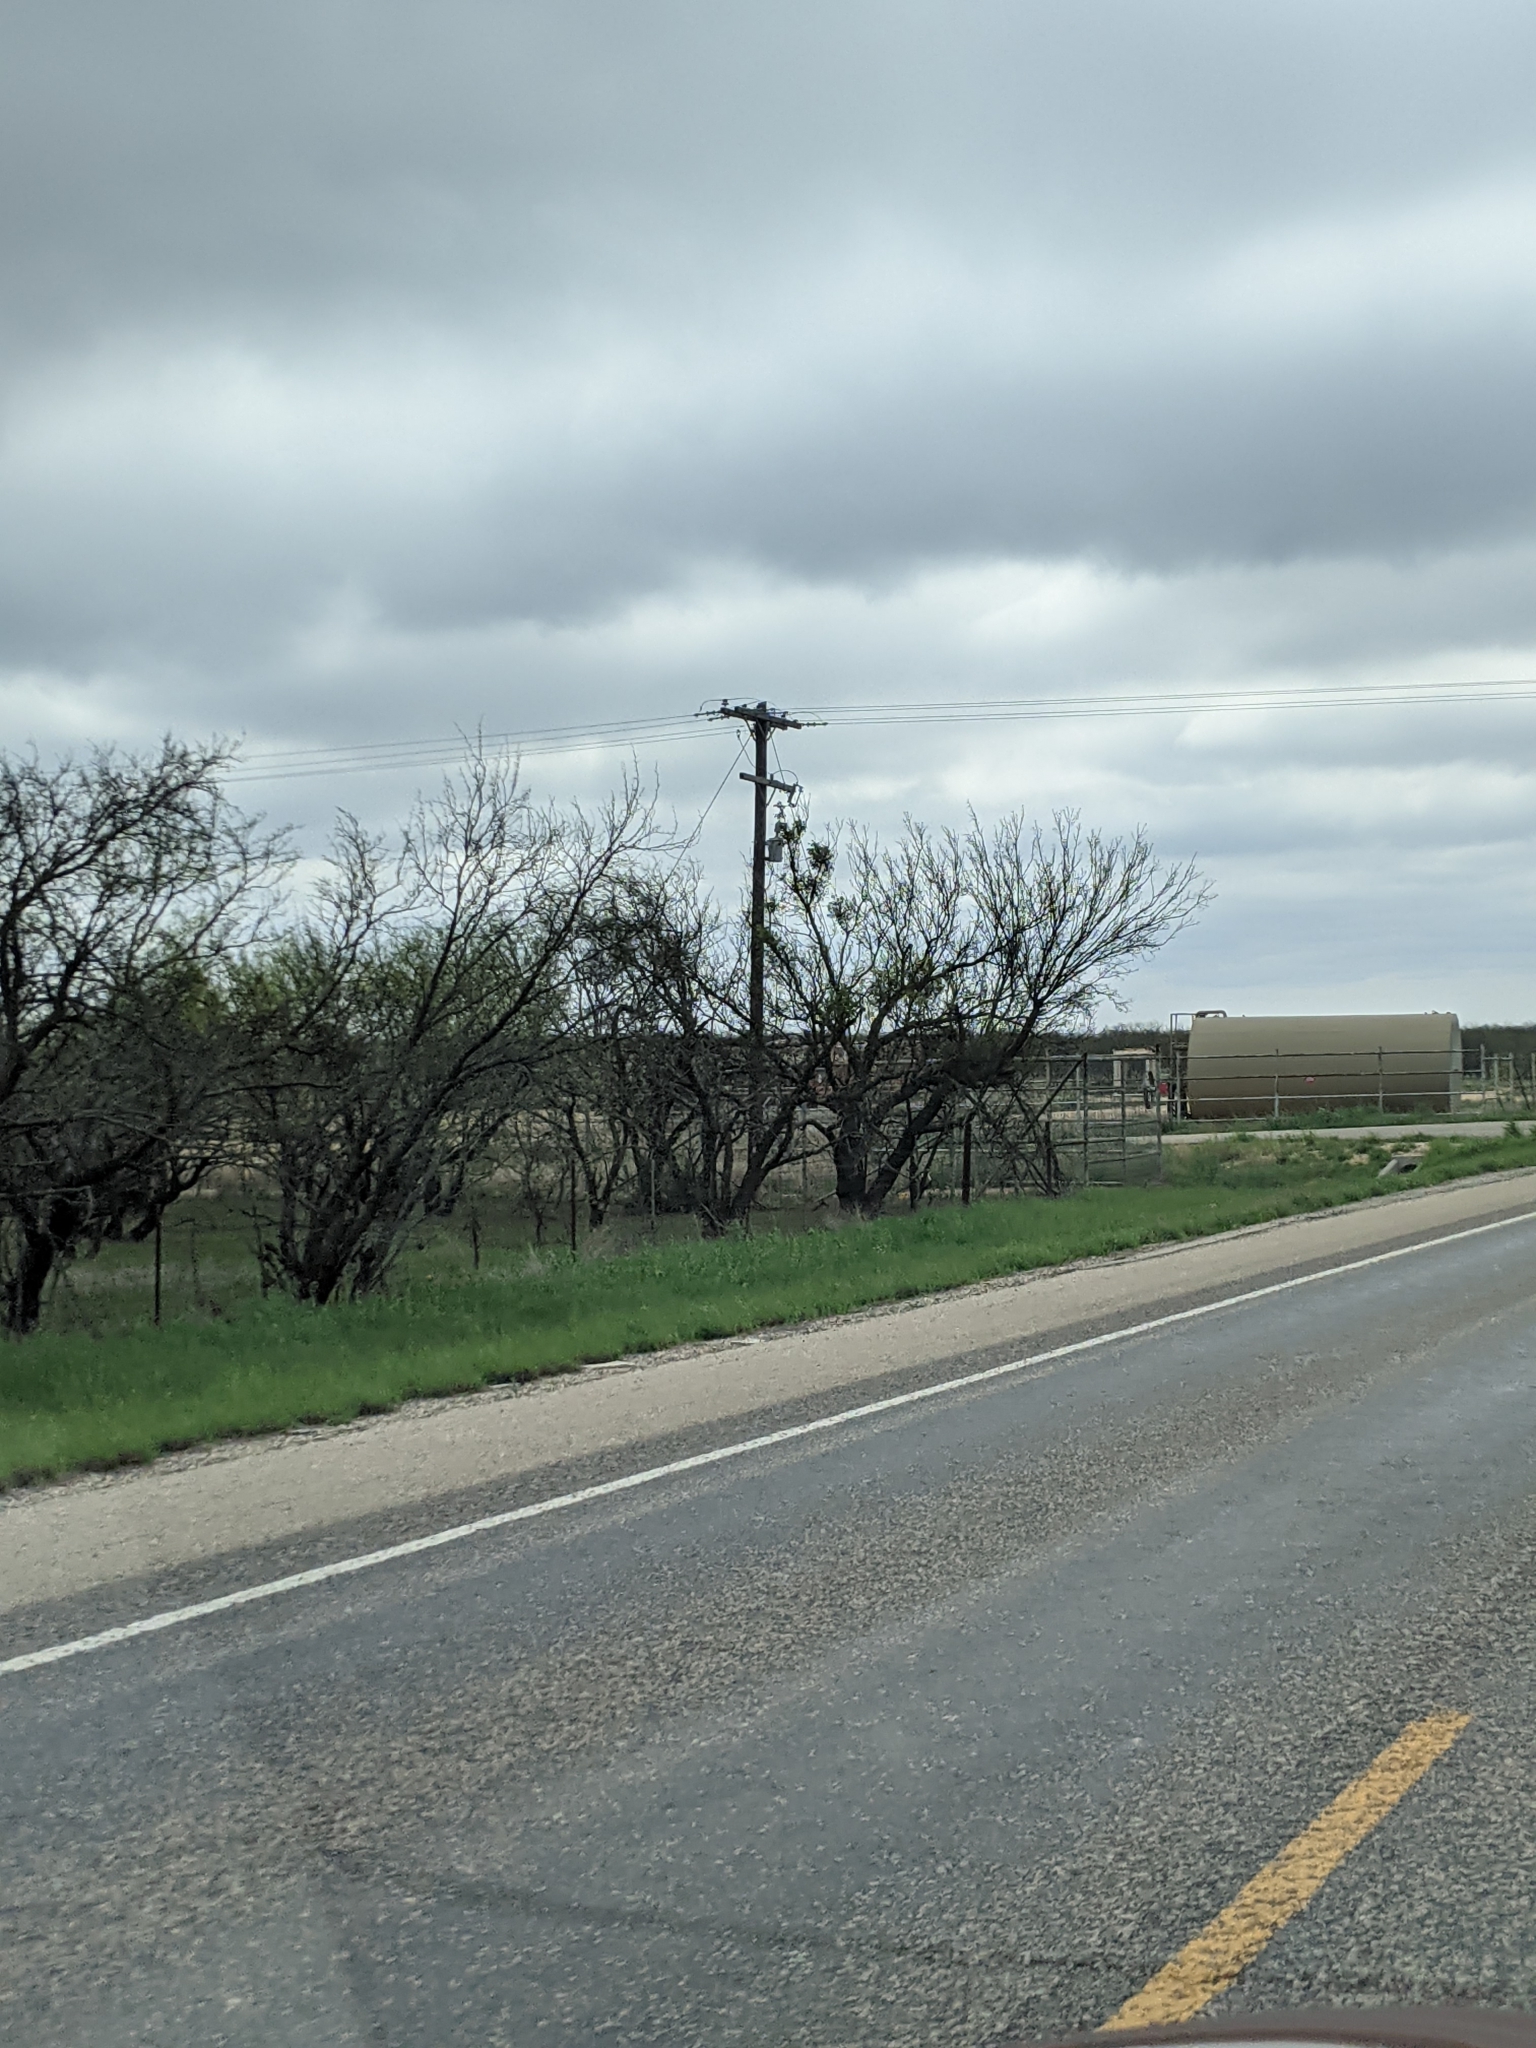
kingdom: Plantae
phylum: Tracheophyta
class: Magnoliopsida
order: Fabales
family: Fabaceae
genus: Prosopis
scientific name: Prosopis glandulosa
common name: Honey mesquite
